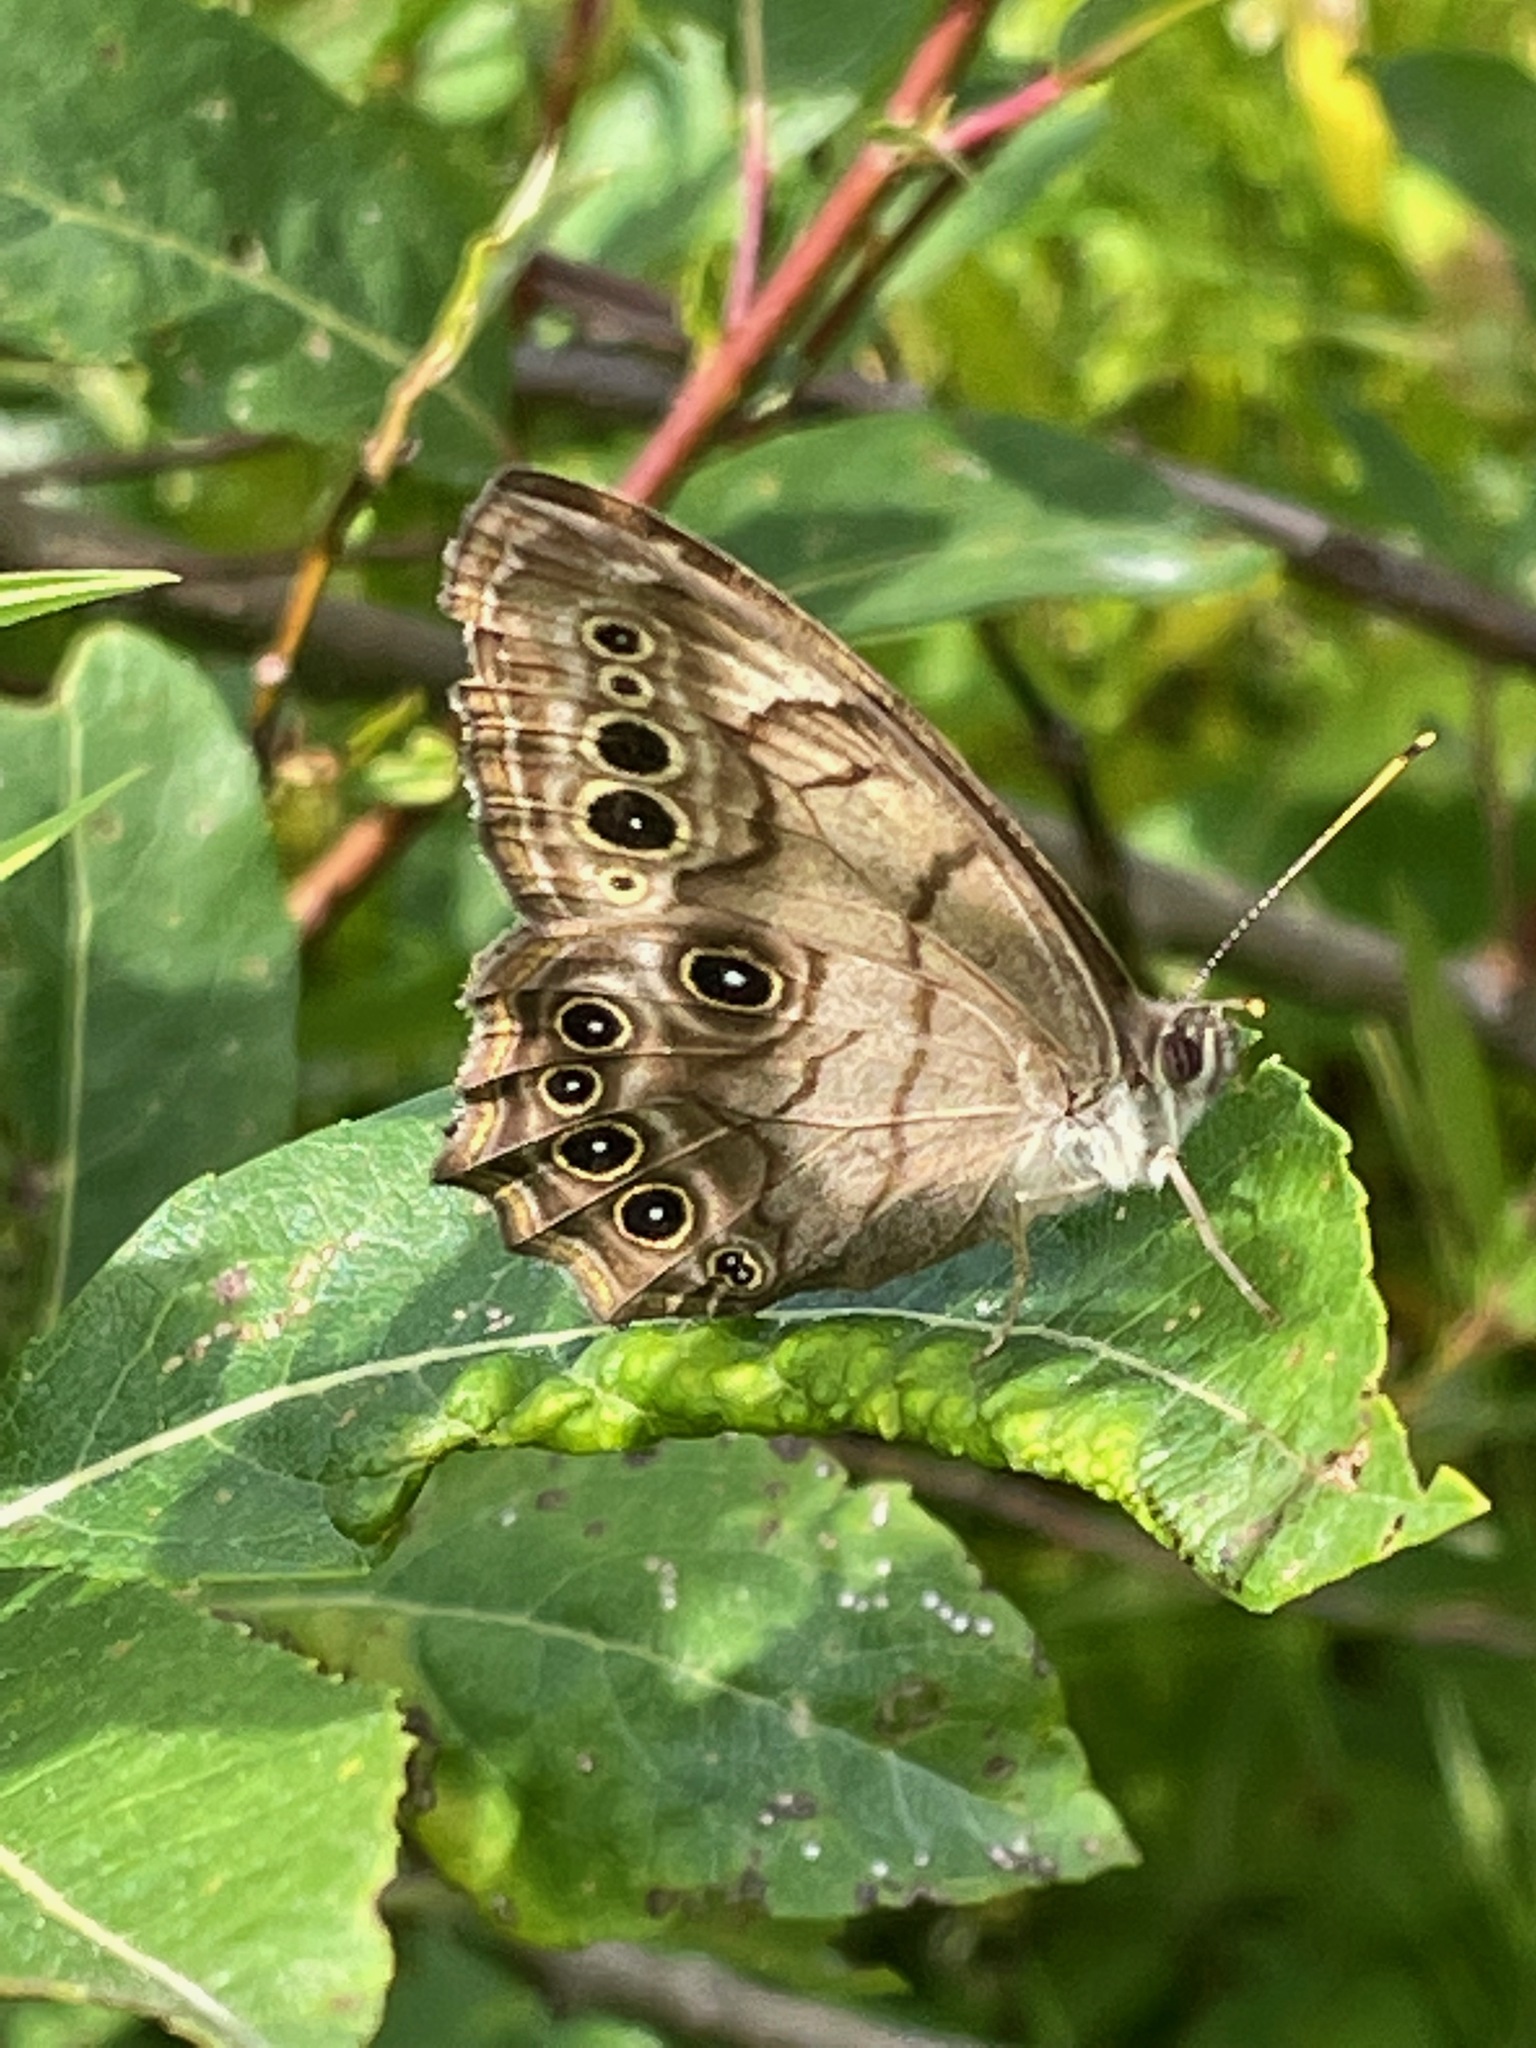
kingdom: Animalia
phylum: Arthropoda
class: Insecta
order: Lepidoptera
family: Nymphalidae
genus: Lethe
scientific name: Lethe anthedon
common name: Northern pearly-eye
